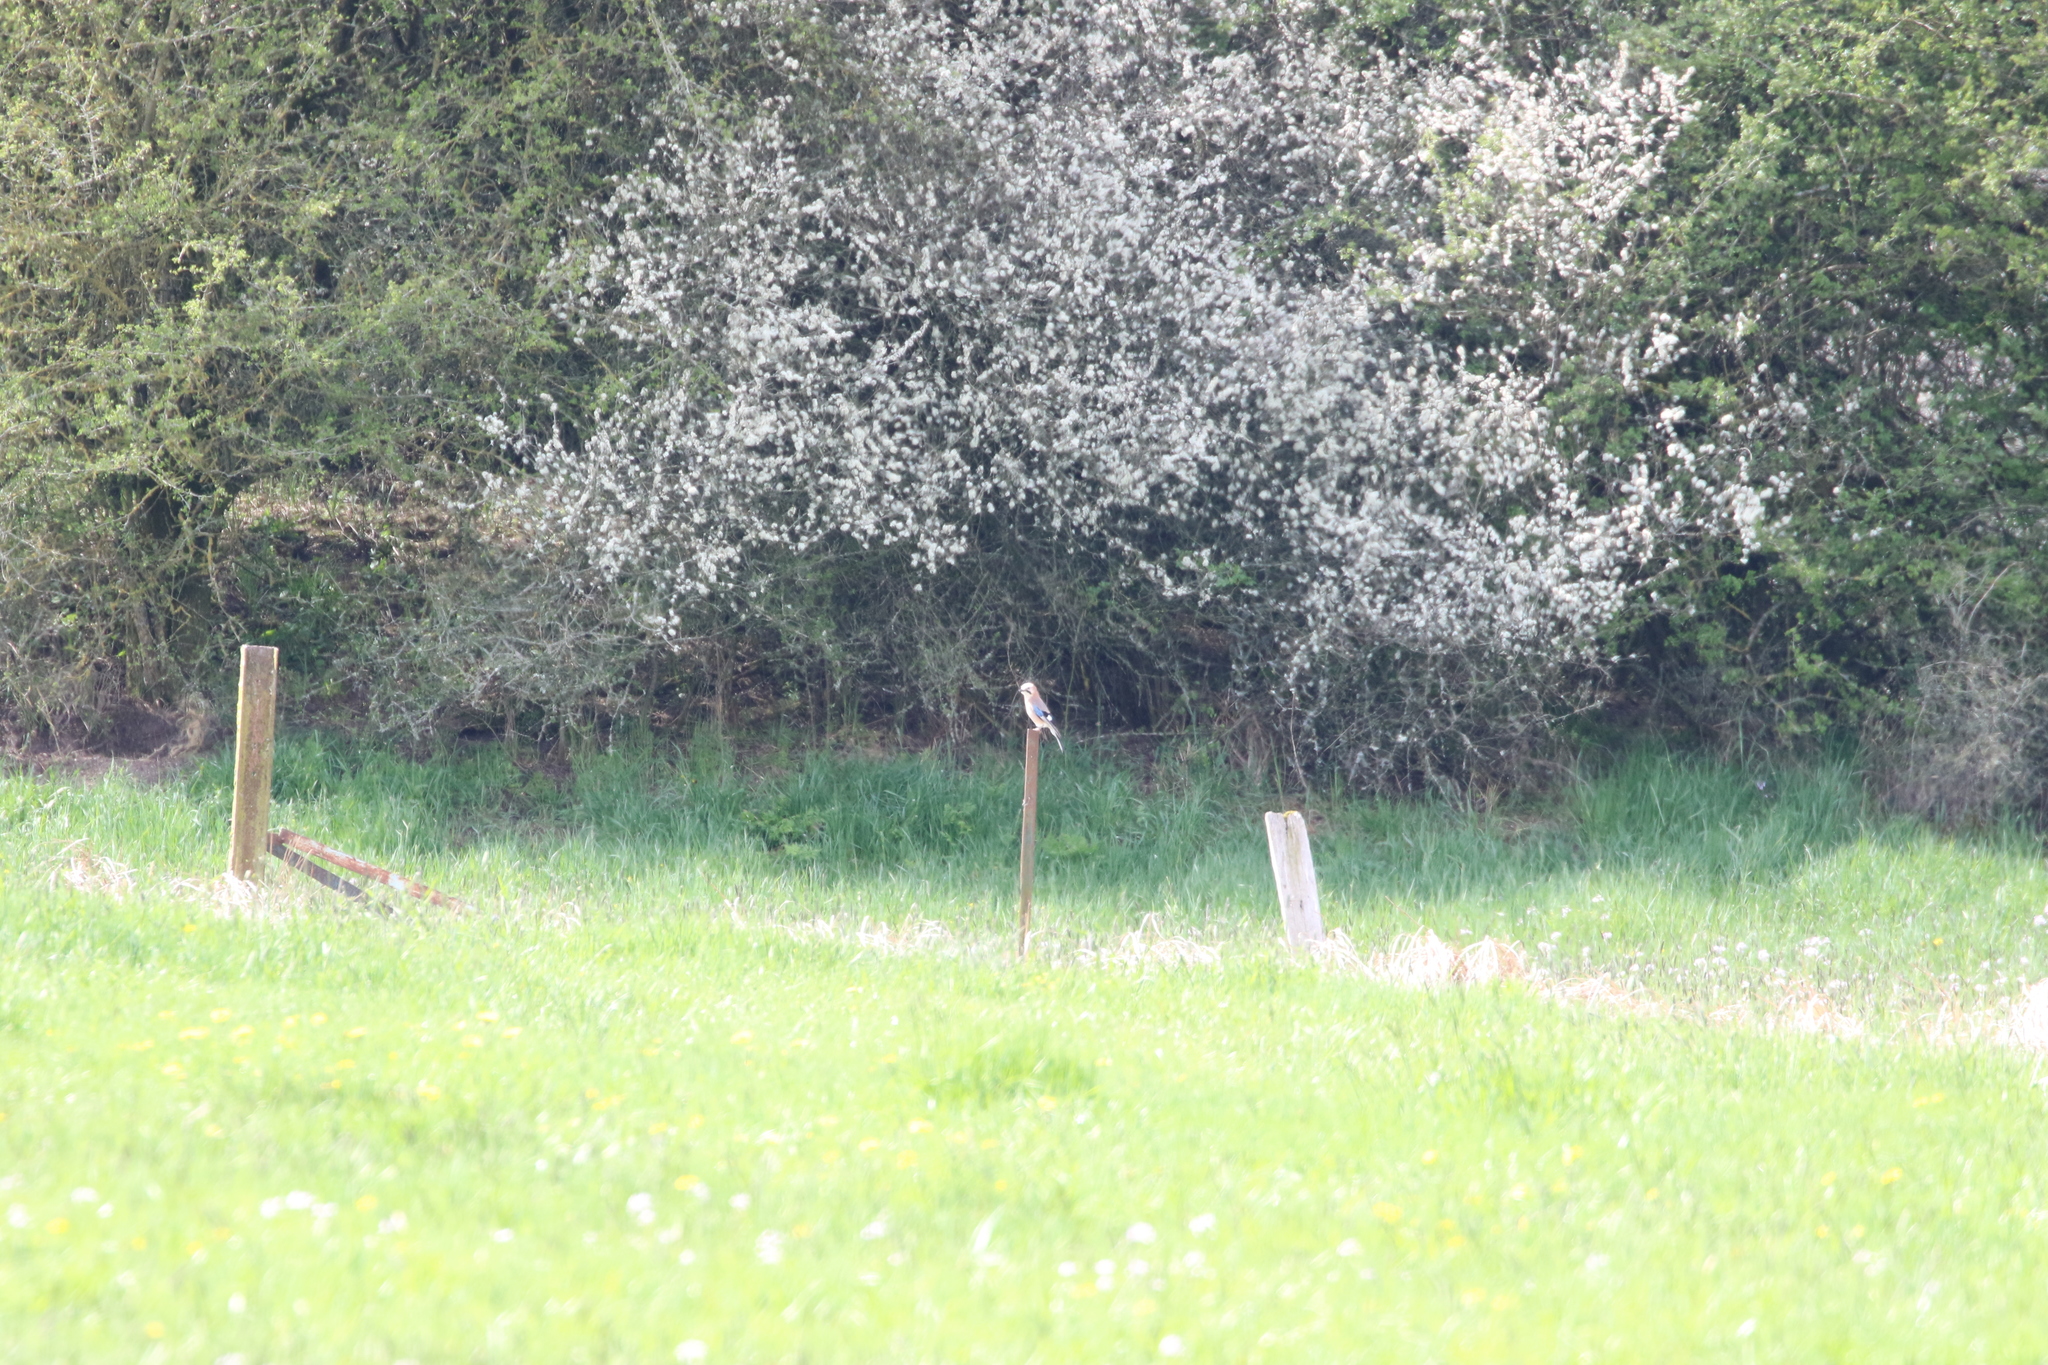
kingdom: Animalia
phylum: Chordata
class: Aves
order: Passeriformes
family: Corvidae
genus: Garrulus
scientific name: Garrulus glandarius
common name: Eurasian jay
